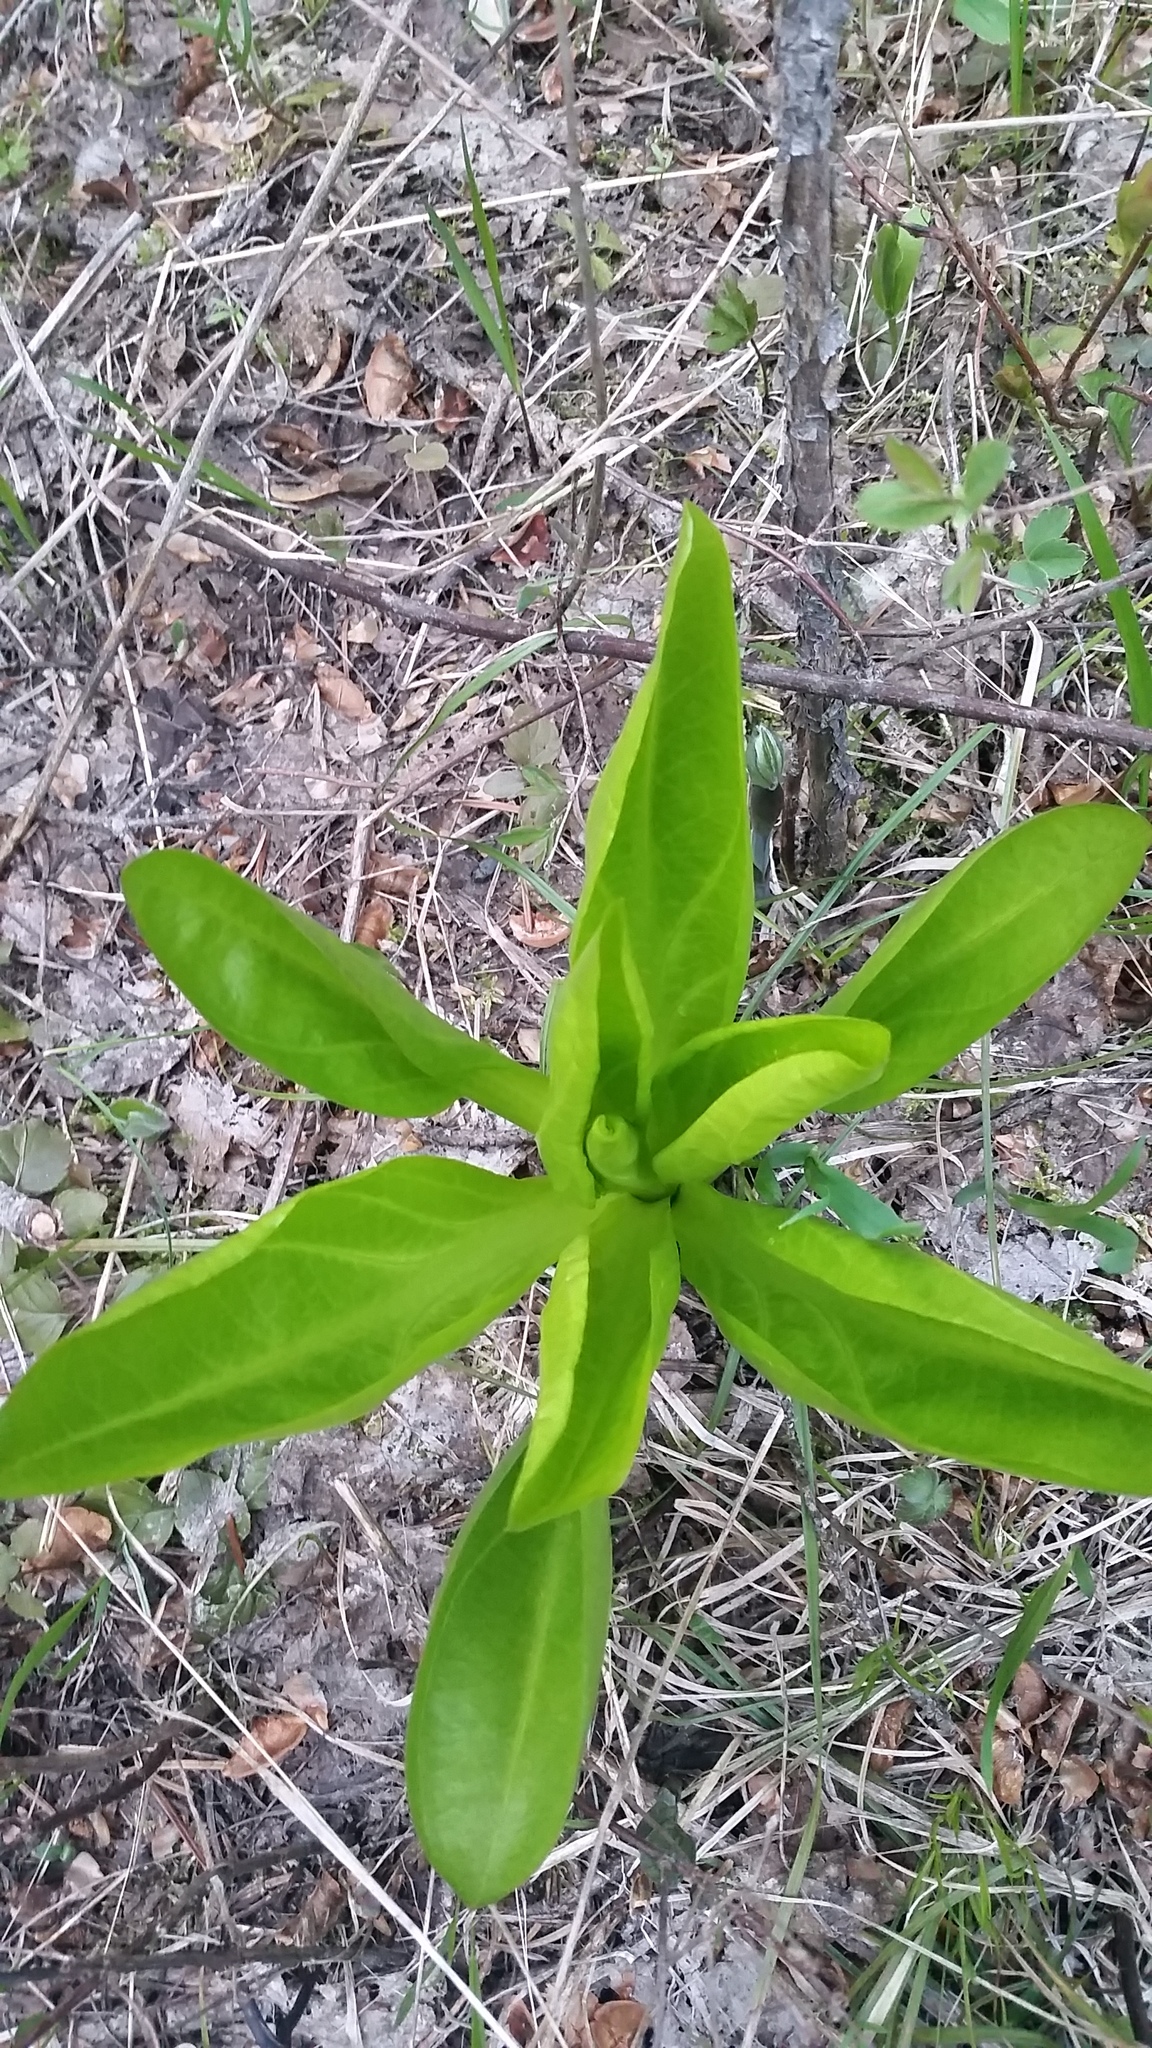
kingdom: Plantae
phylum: Tracheophyta
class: Magnoliopsida
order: Gentianales
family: Gentianaceae
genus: Frasera
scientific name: Frasera fastigiata
